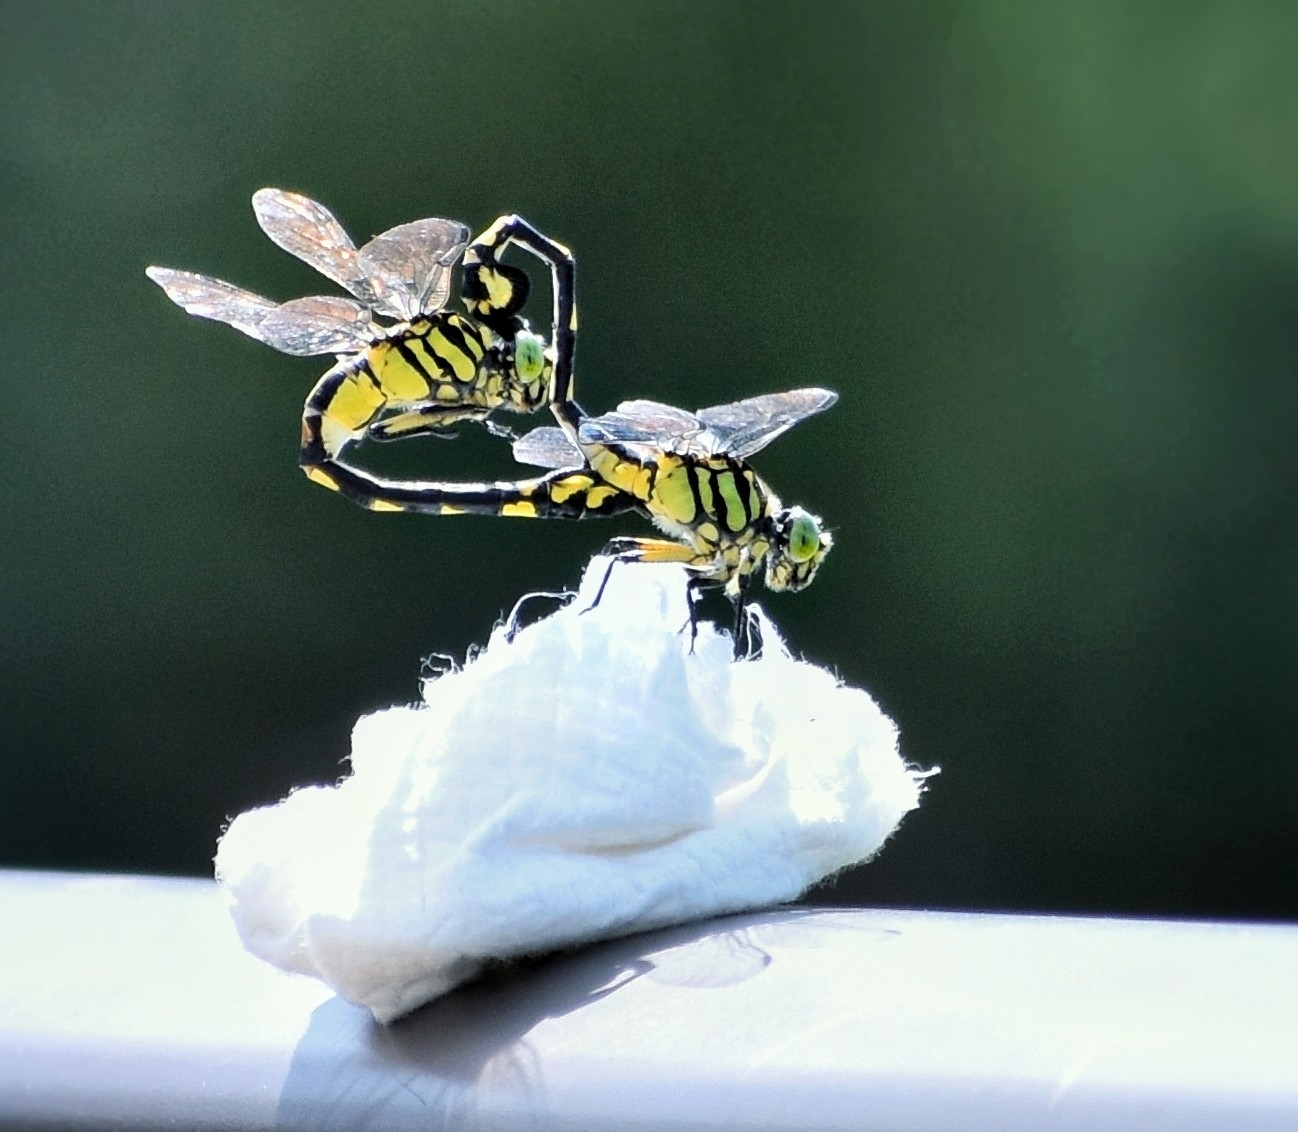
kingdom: Animalia
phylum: Arthropoda
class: Insecta
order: Odonata
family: Gomphidae
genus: Sinictinogomphus
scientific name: Sinictinogomphus clavatus
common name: Golden flangetail
